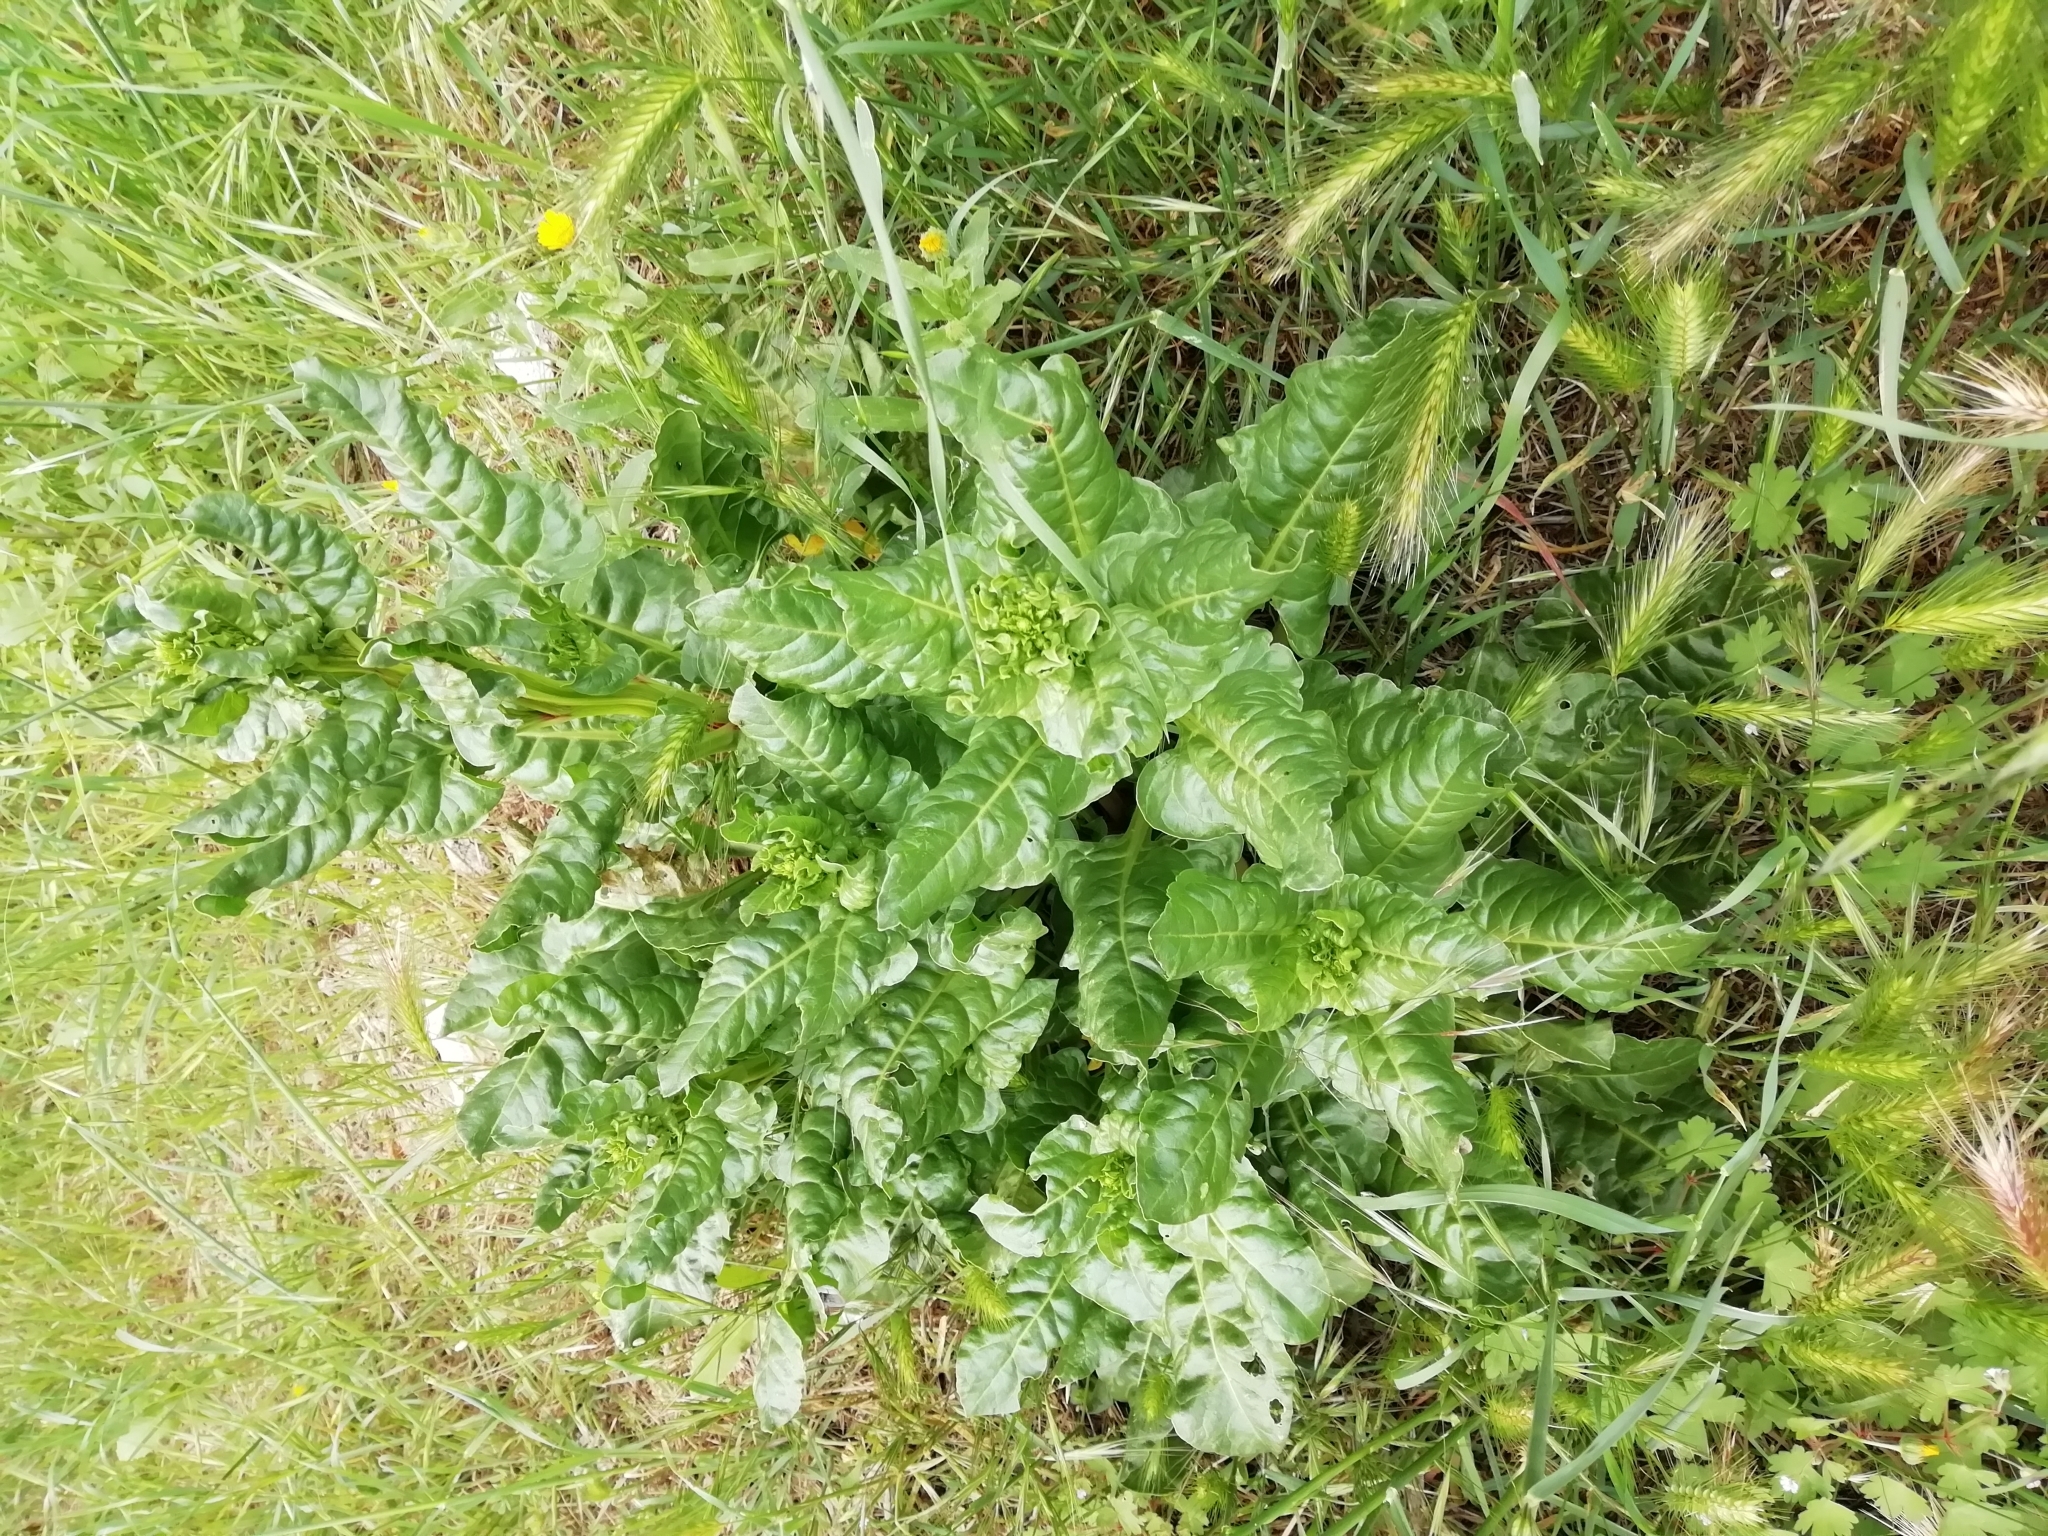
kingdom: Plantae
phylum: Tracheophyta
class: Magnoliopsida
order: Caryophyllales
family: Amaranthaceae
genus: Beta
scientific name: Beta vulgaris
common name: Beet
